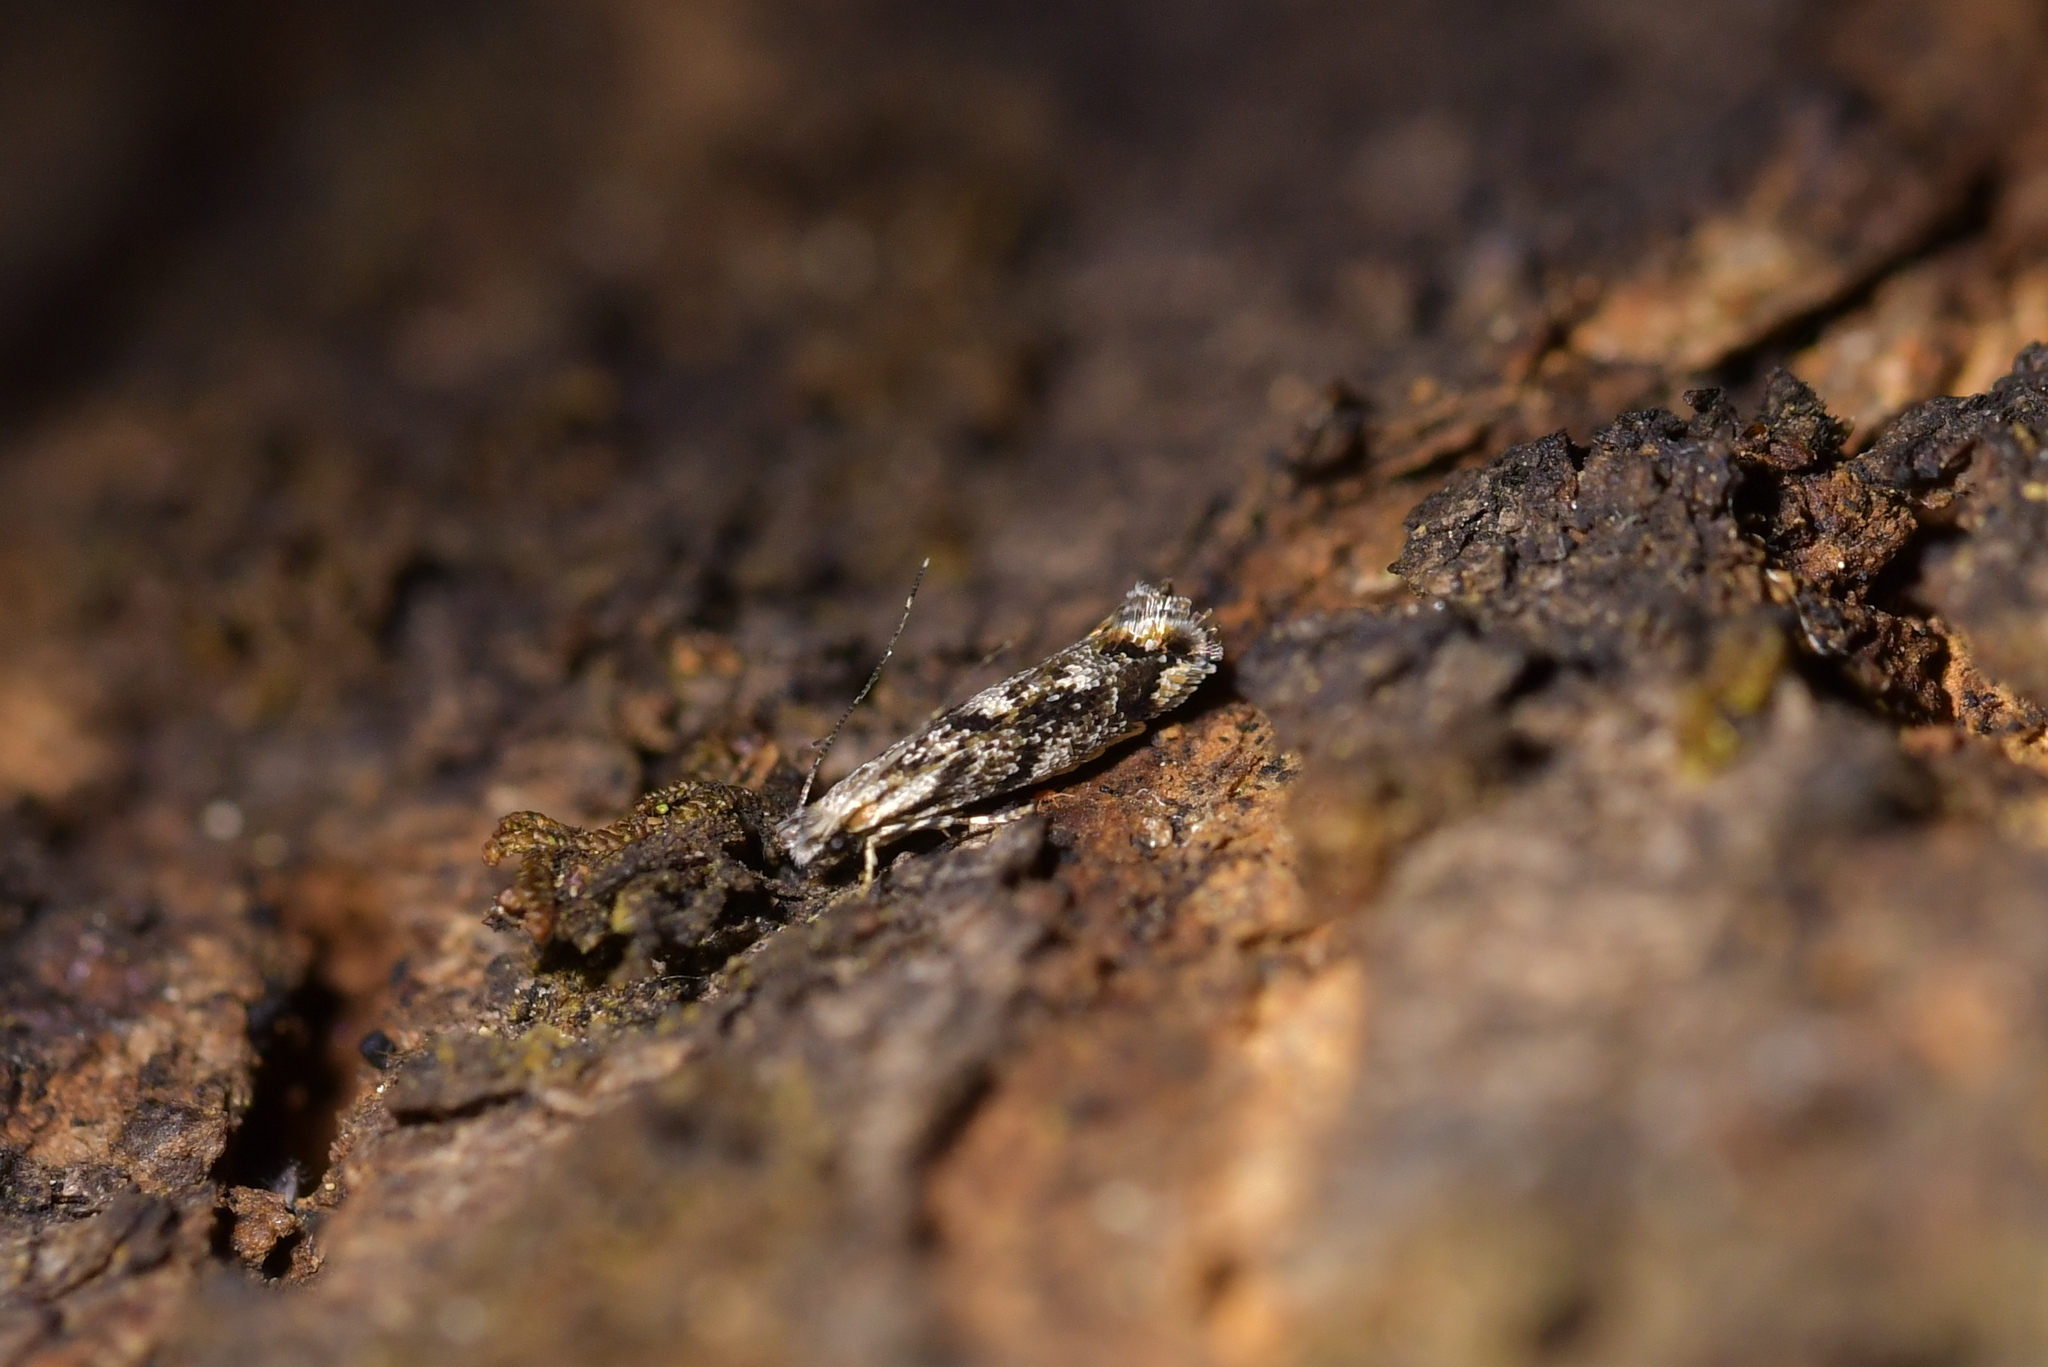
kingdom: Animalia
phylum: Arthropoda
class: Insecta
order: Lepidoptera
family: Tineidae
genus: Erechthias
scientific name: Erechthias crypsimima
